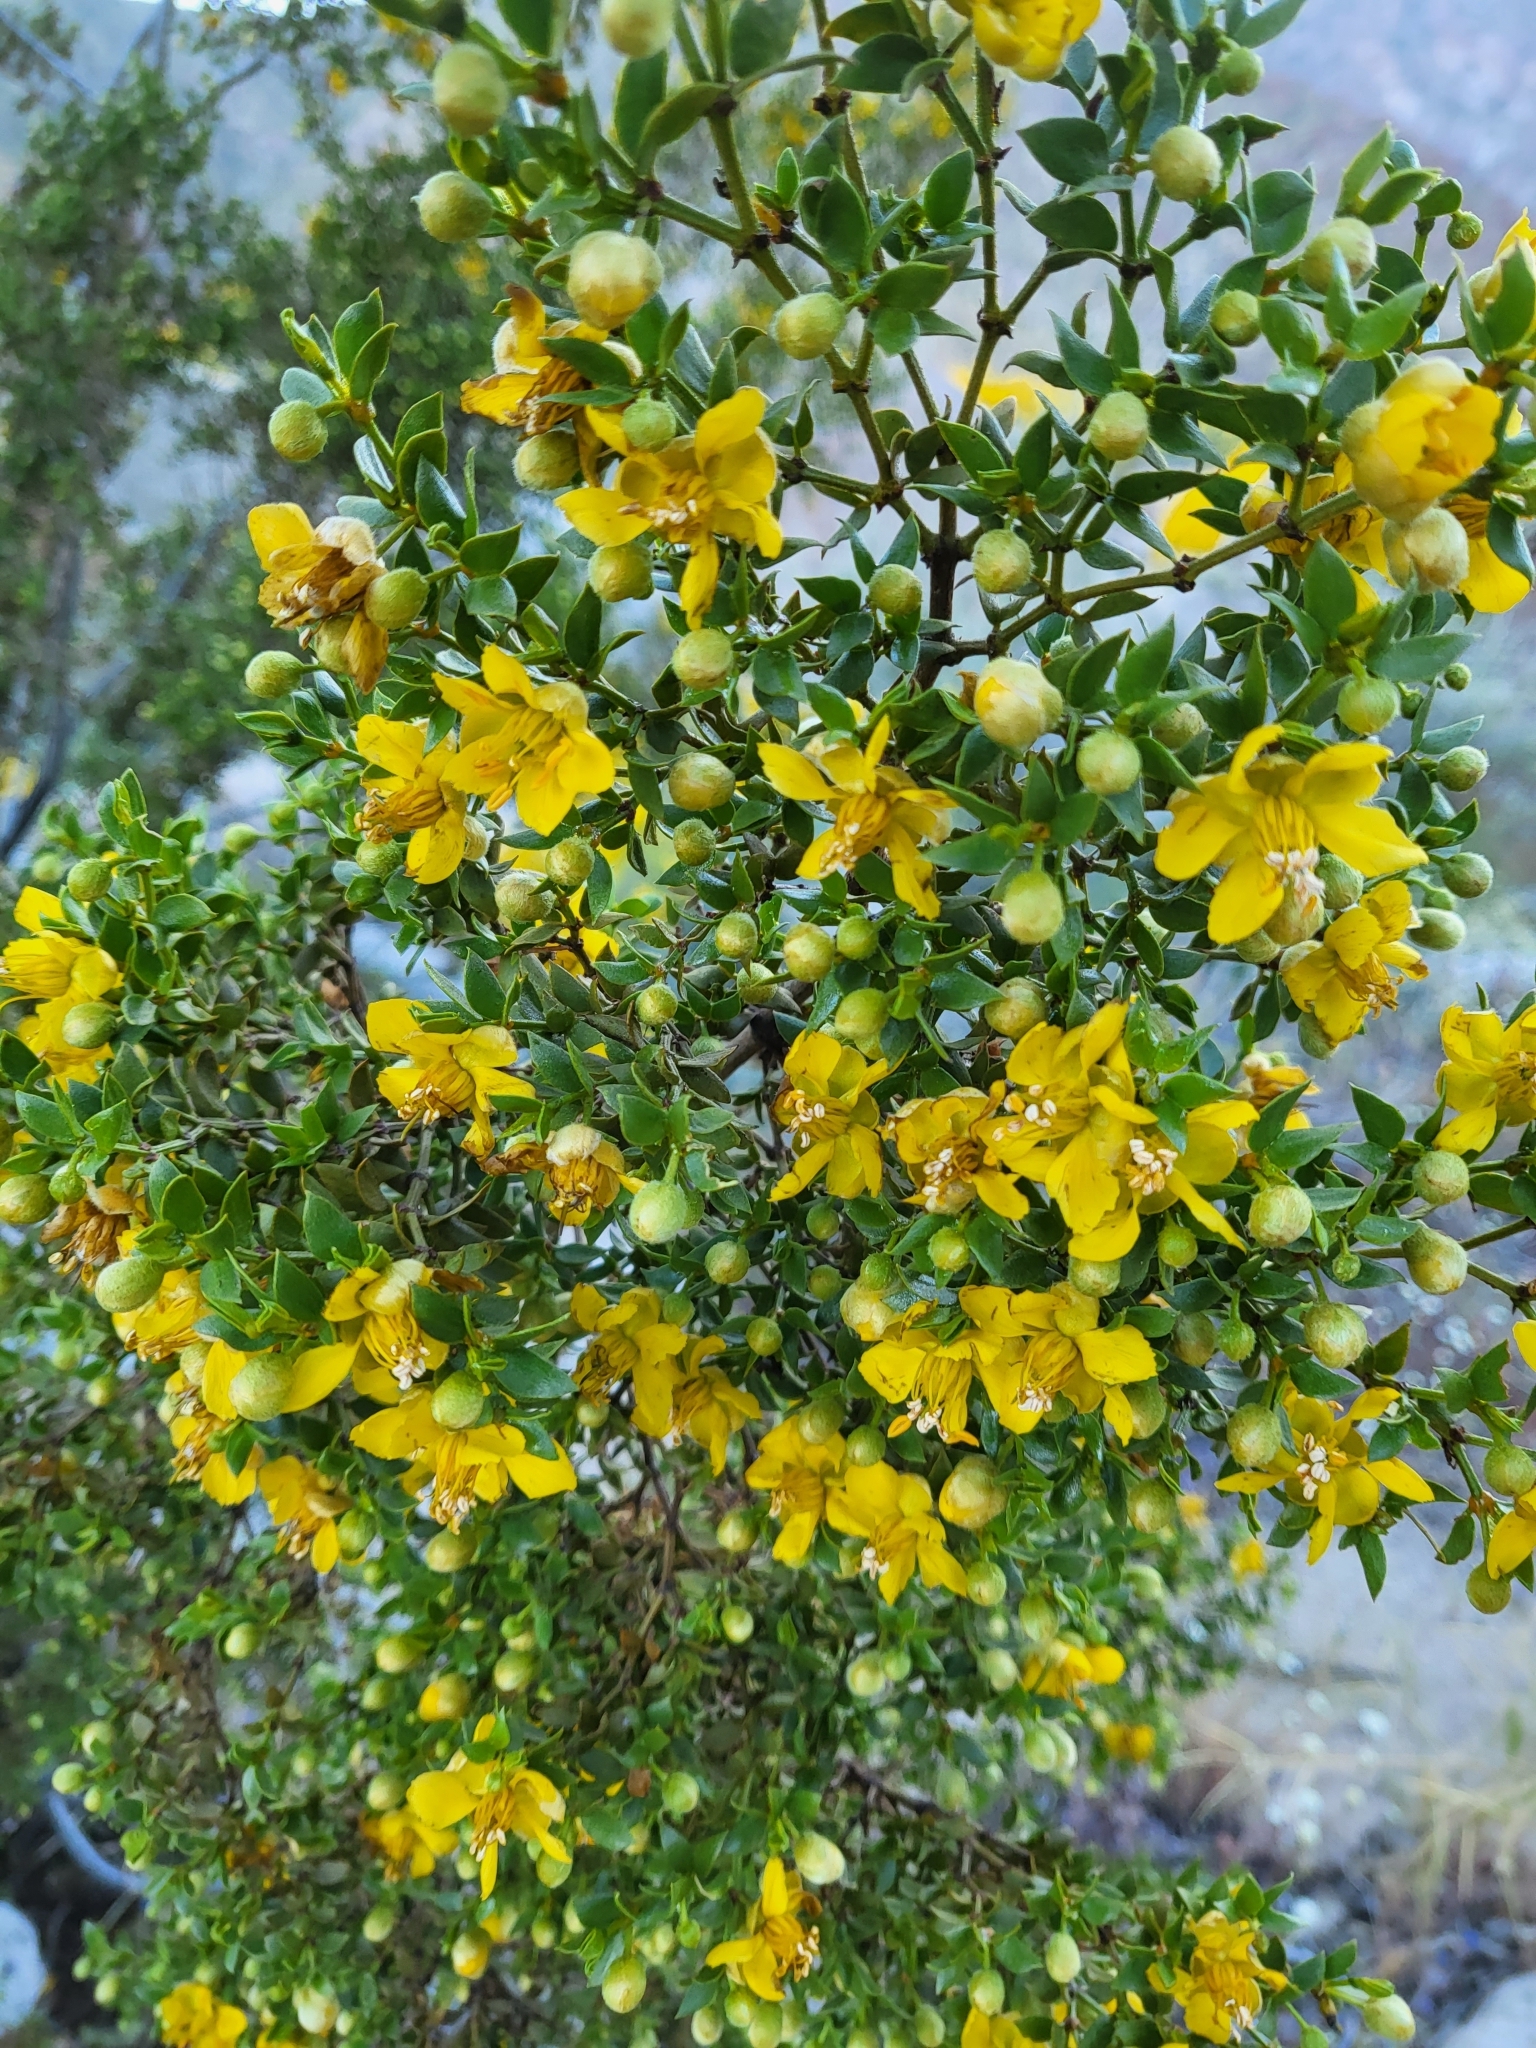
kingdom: Plantae
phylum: Tracheophyta
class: Magnoliopsida
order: Zygophyllales
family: Zygophyllaceae
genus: Larrea
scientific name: Larrea tridentata
